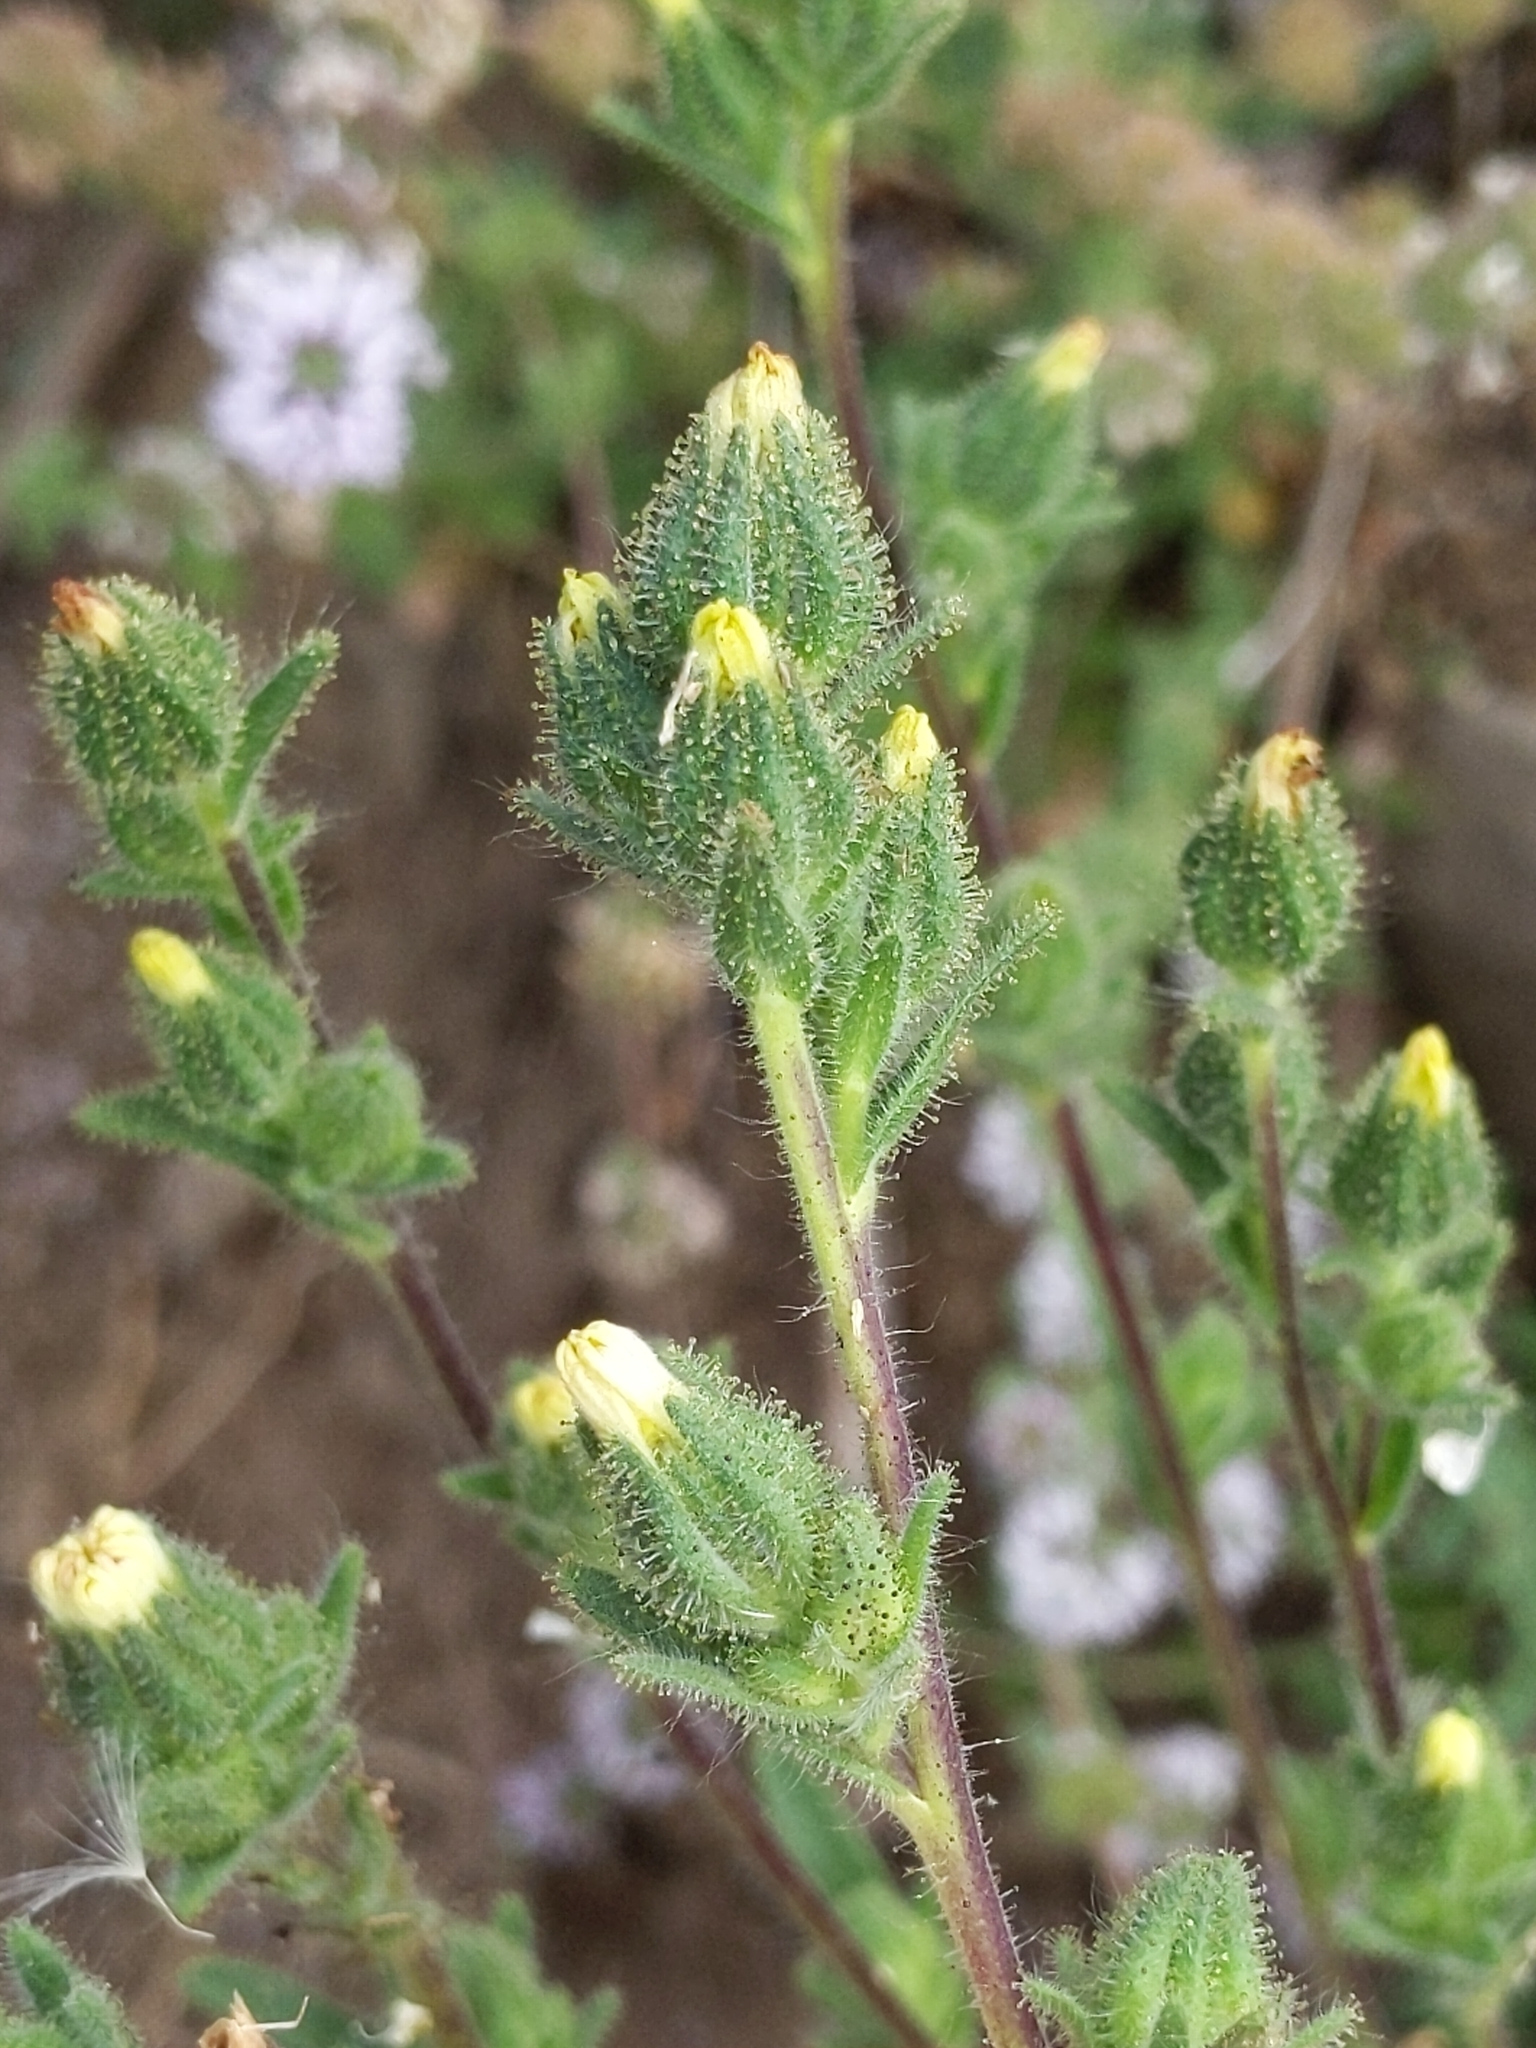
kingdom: Plantae
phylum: Tracheophyta
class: Magnoliopsida
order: Asterales
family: Asteraceae
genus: Madia
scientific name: Madia sativa
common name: Coast tarweed
